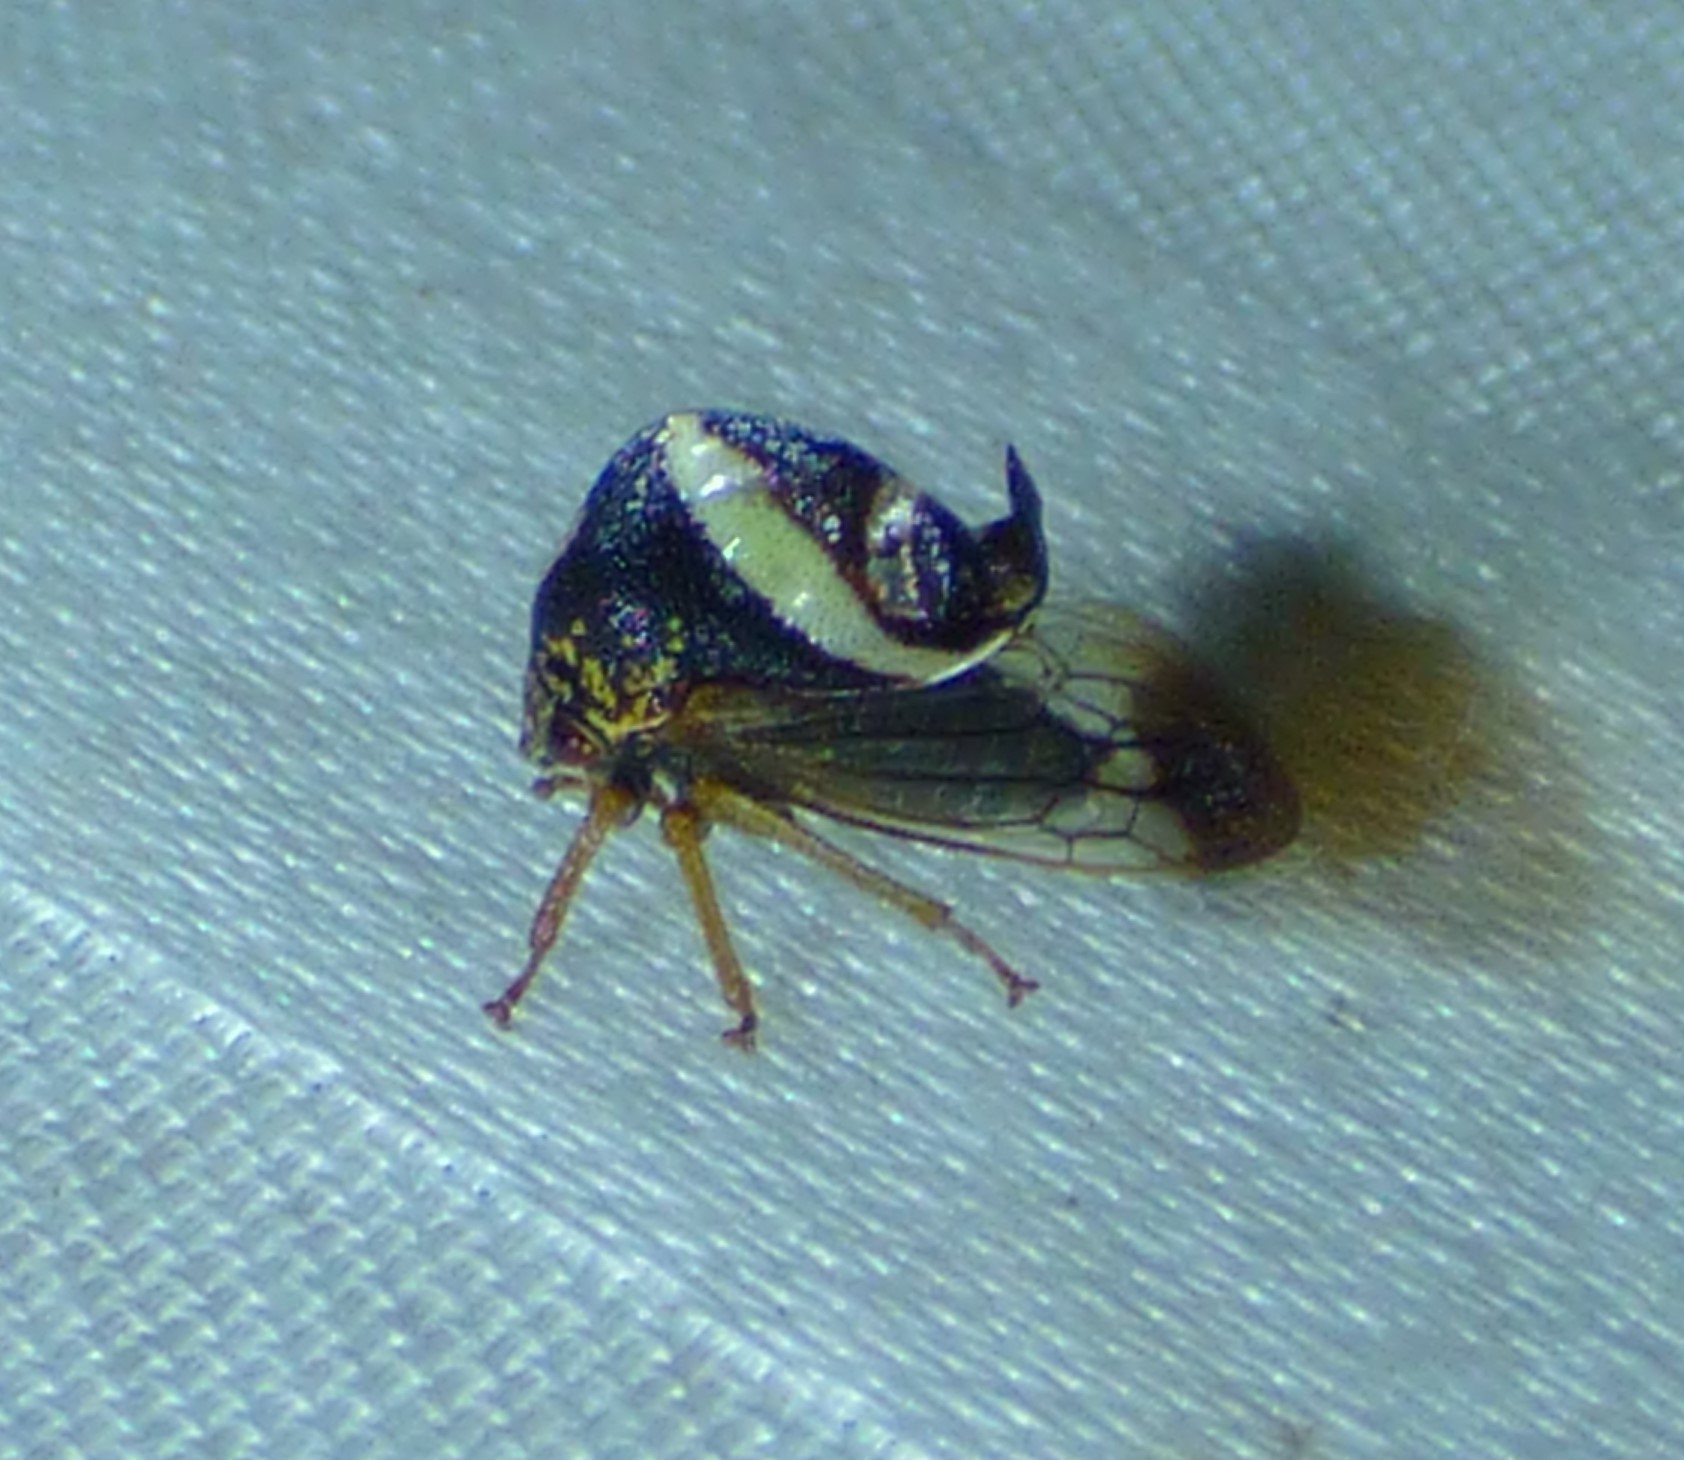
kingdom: Animalia
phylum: Arthropoda
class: Insecta
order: Hemiptera
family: Membracidae
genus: Smilia
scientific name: Smilia camelus
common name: Camel treehopper
